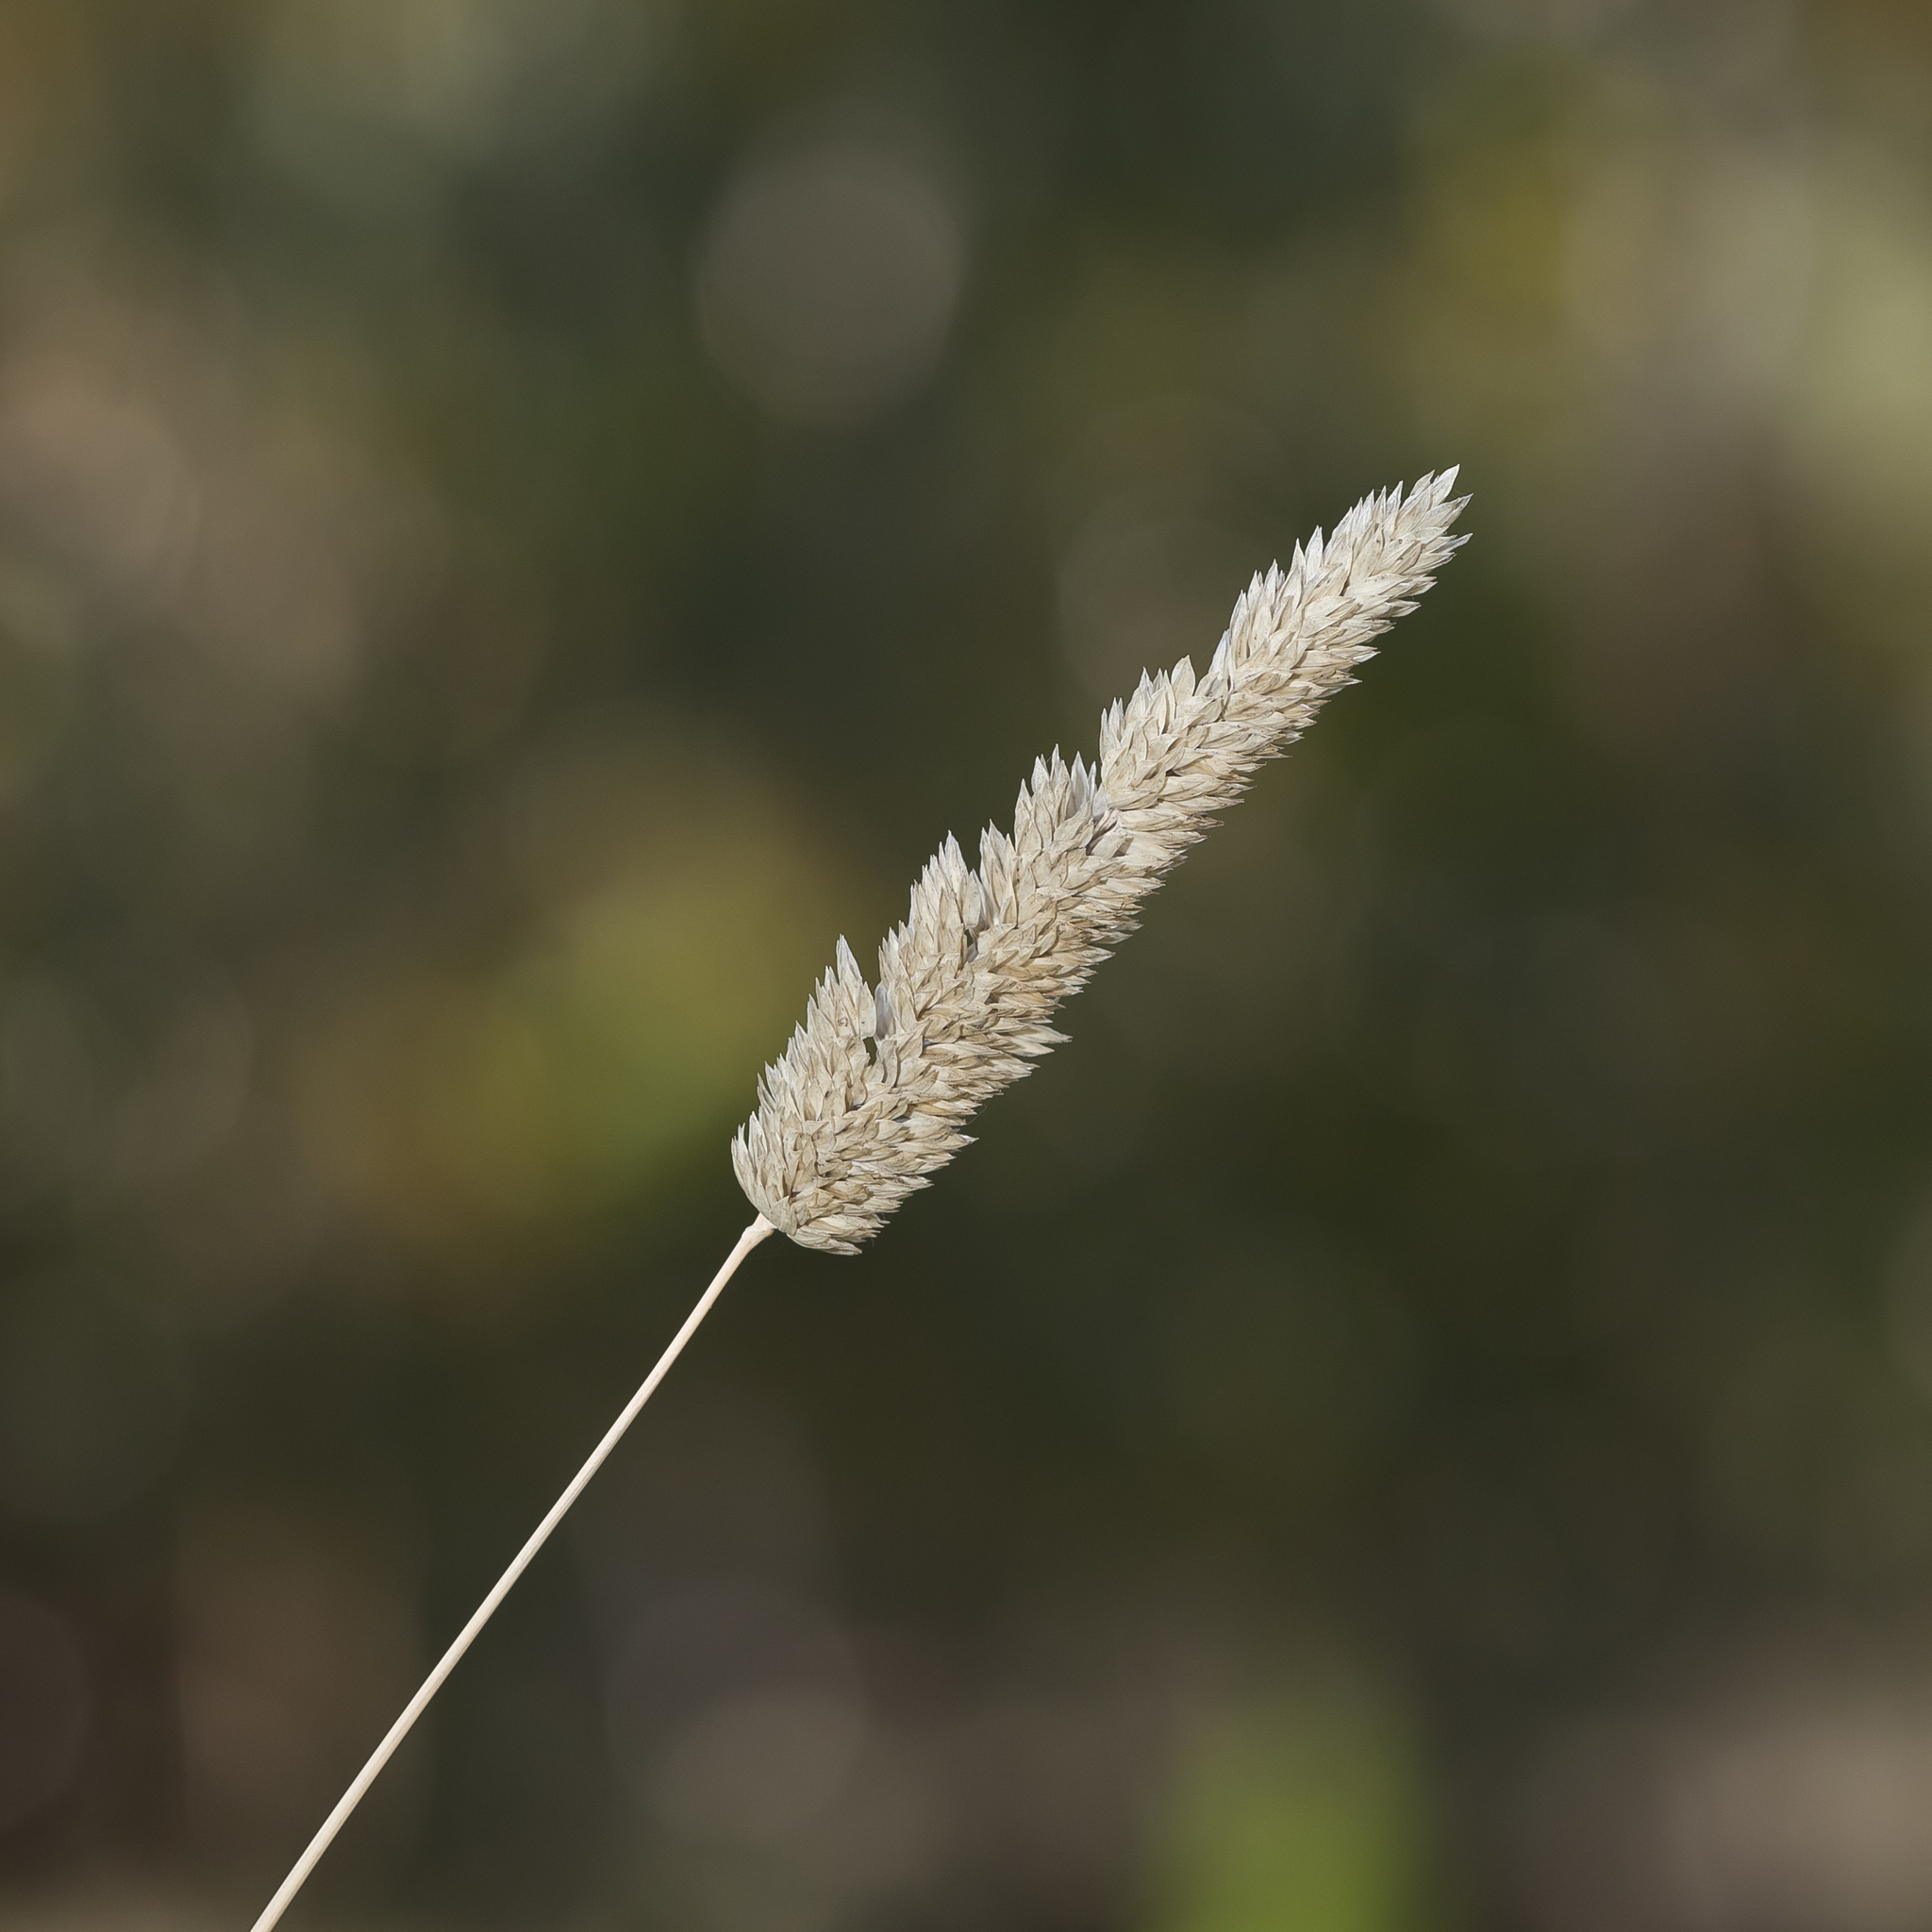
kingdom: Plantae
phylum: Tracheophyta
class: Liliopsida
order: Poales
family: Poaceae
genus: Phalaris
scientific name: Phalaris aquatica
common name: Bulbous canary-grass
